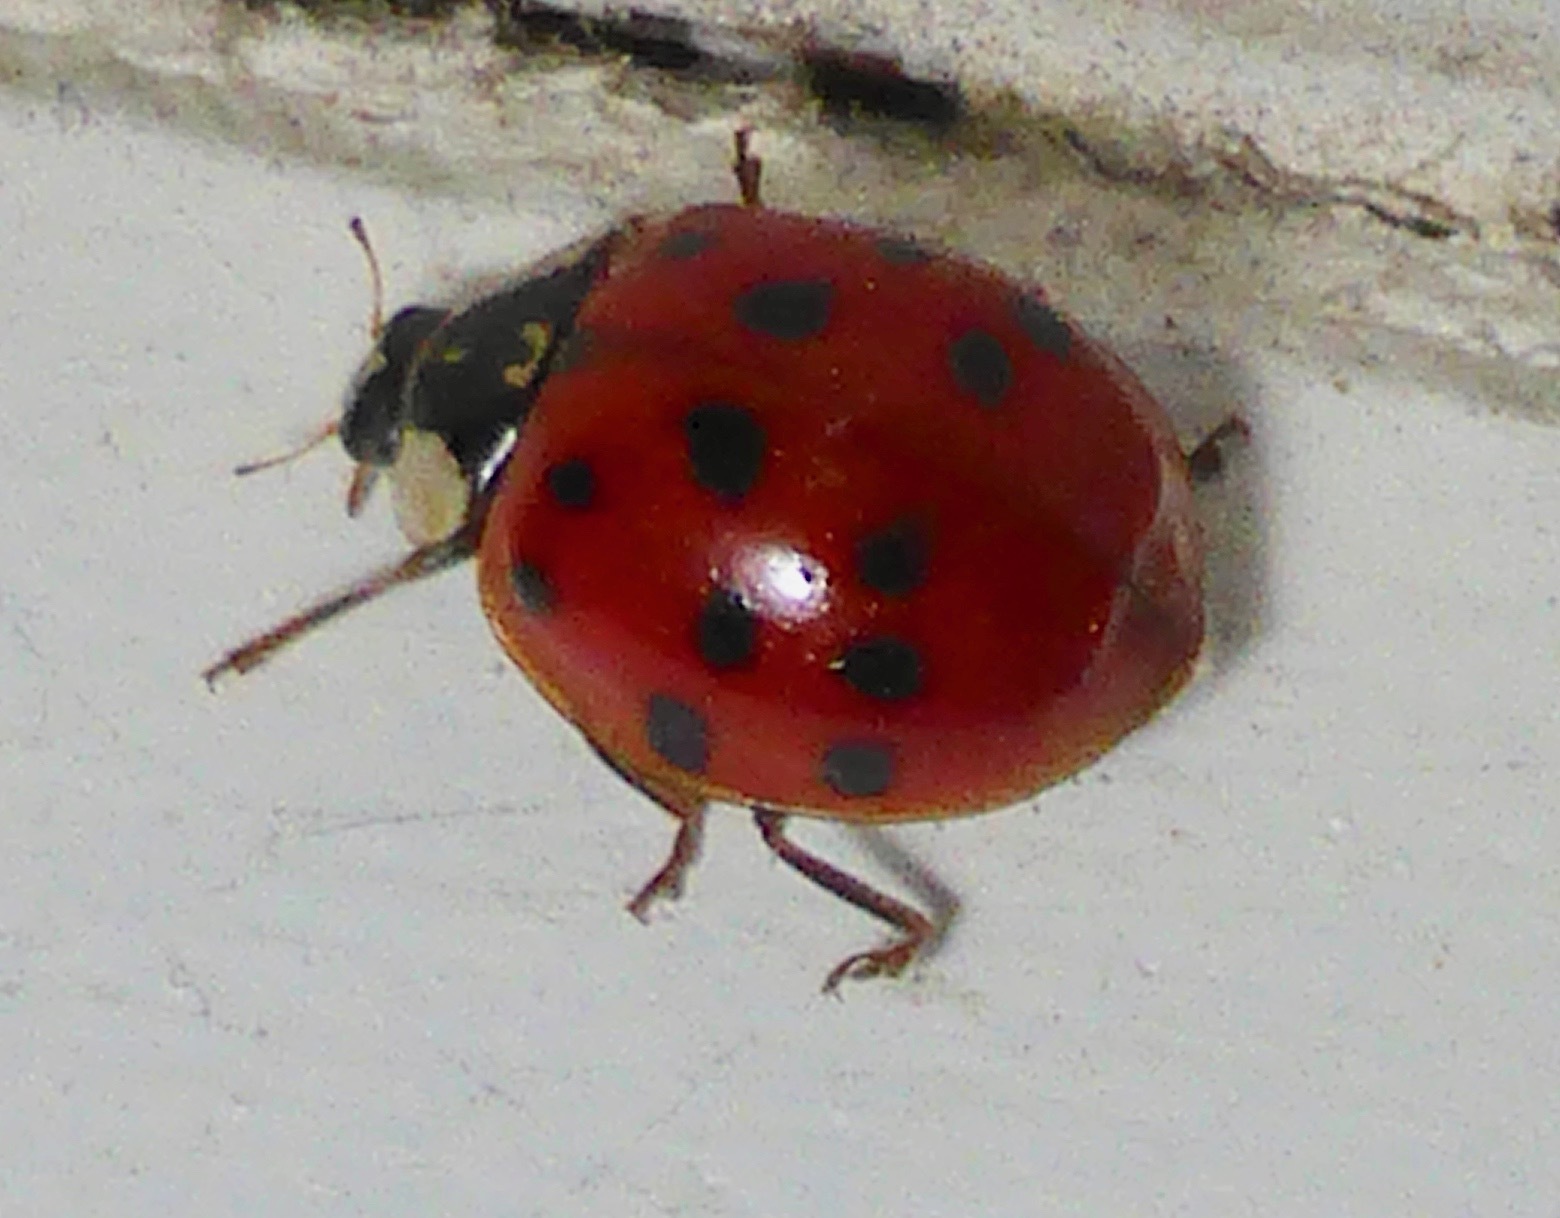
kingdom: Animalia
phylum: Arthropoda
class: Insecta
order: Coleoptera
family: Coccinellidae
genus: Harmonia
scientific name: Harmonia axyridis
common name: Harlequin ladybird
